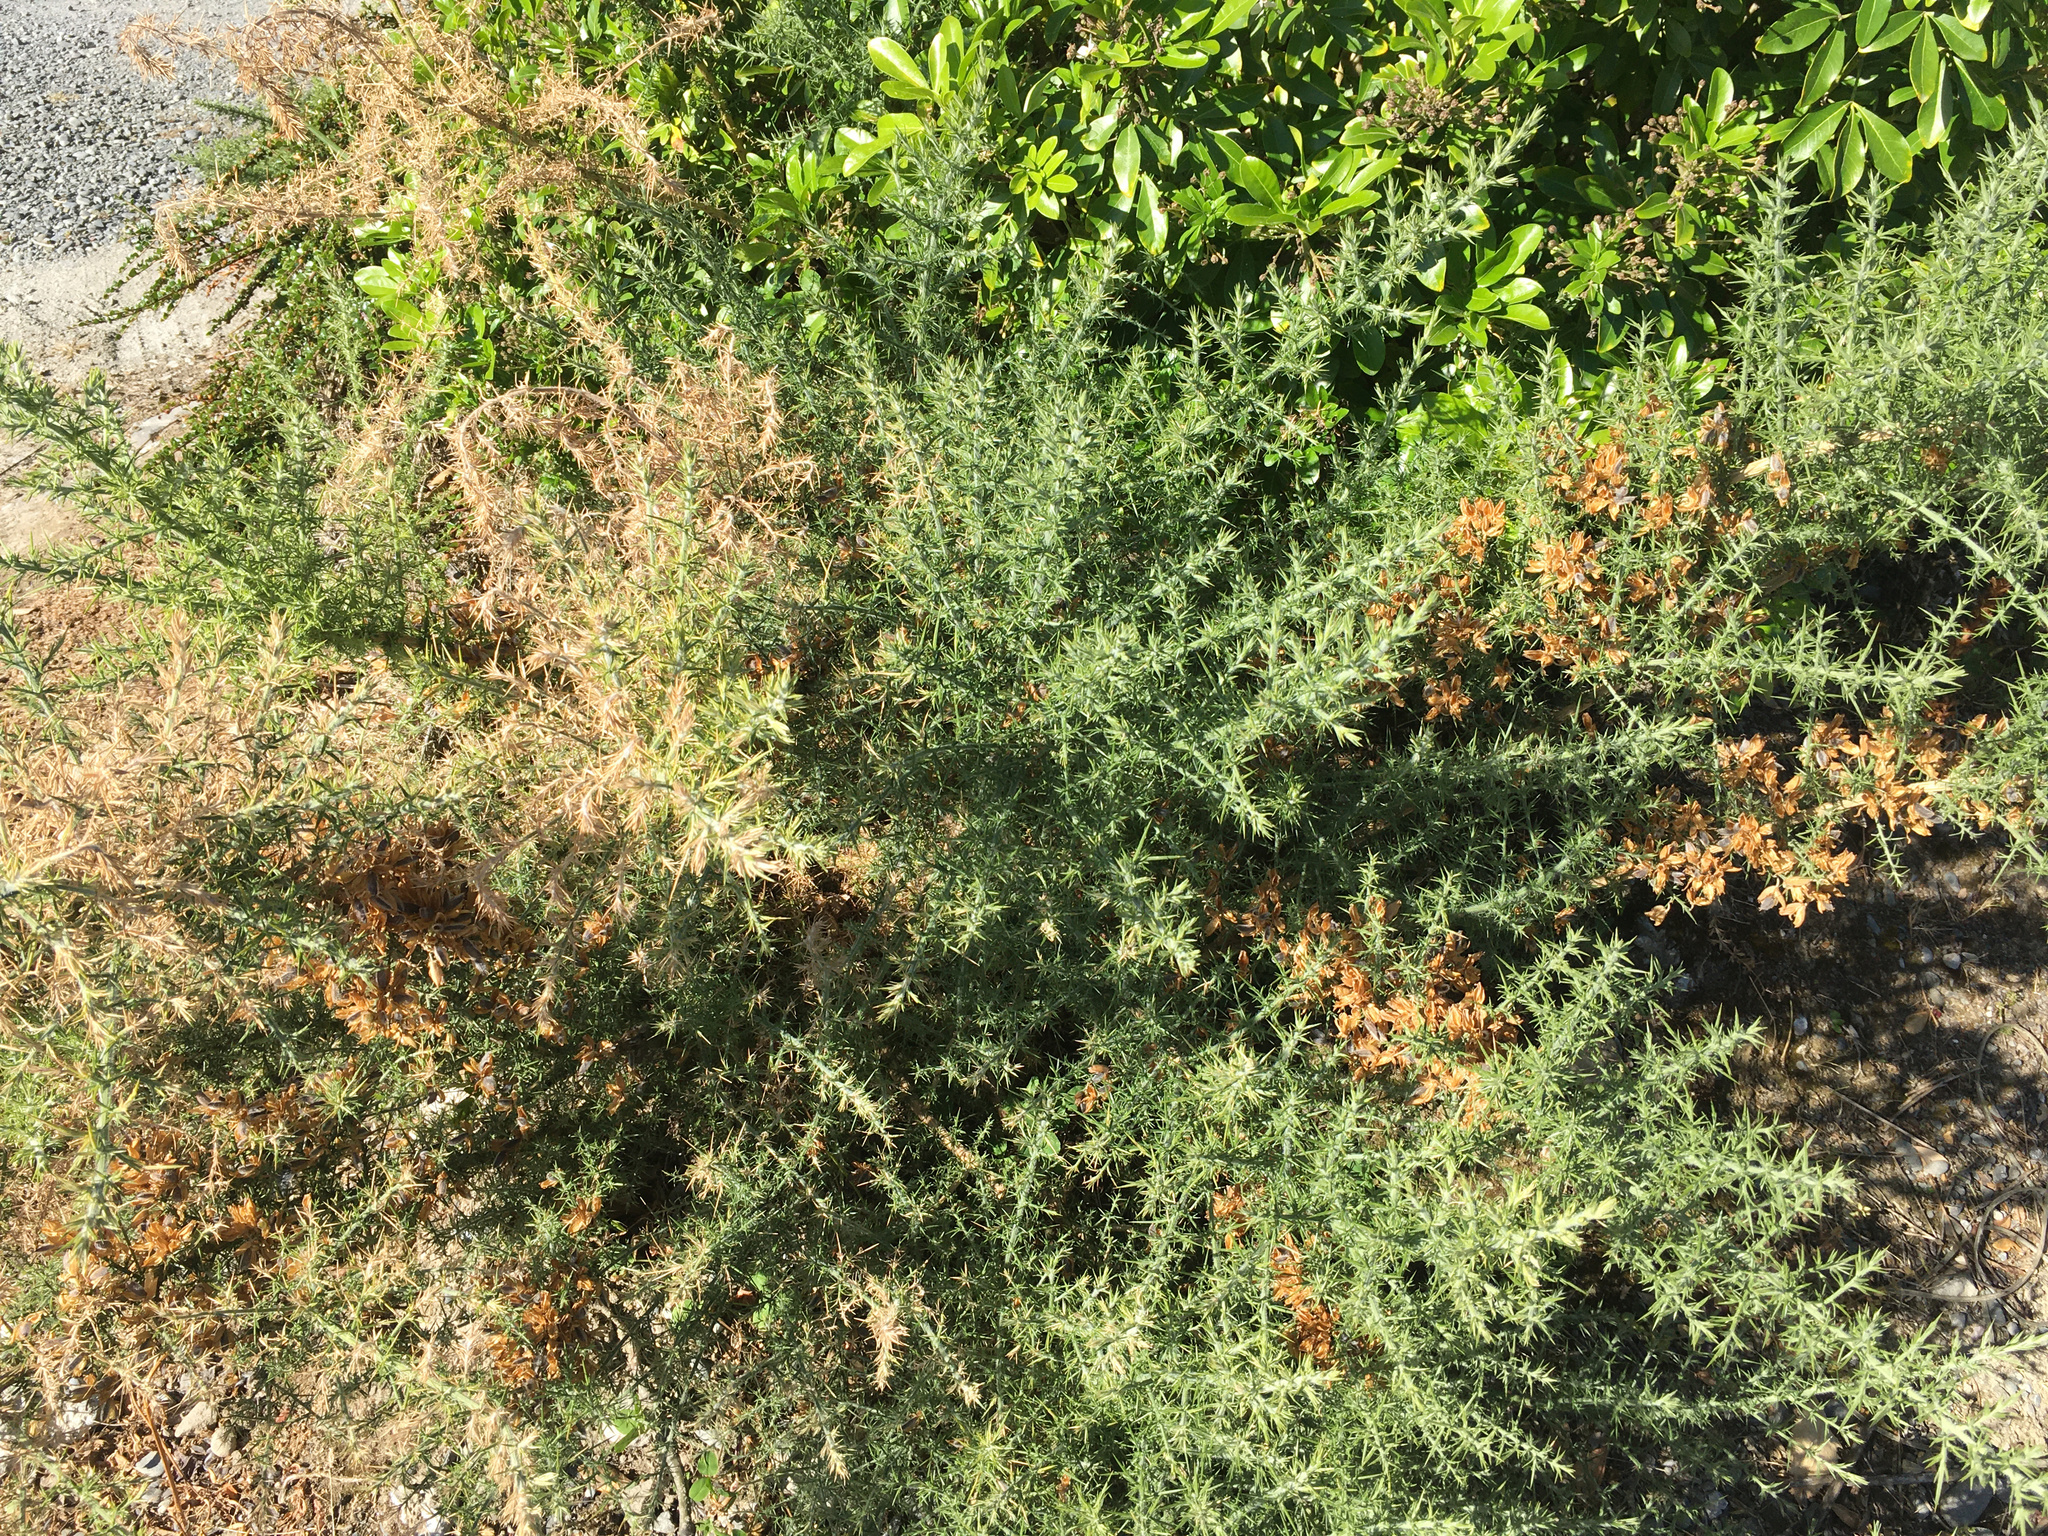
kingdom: Plantae
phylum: Tracheophyta
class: Magnoliopsida
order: Fabales
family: Fabaceae
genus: Ulex
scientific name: Ulex europaeus
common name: Common gorse
